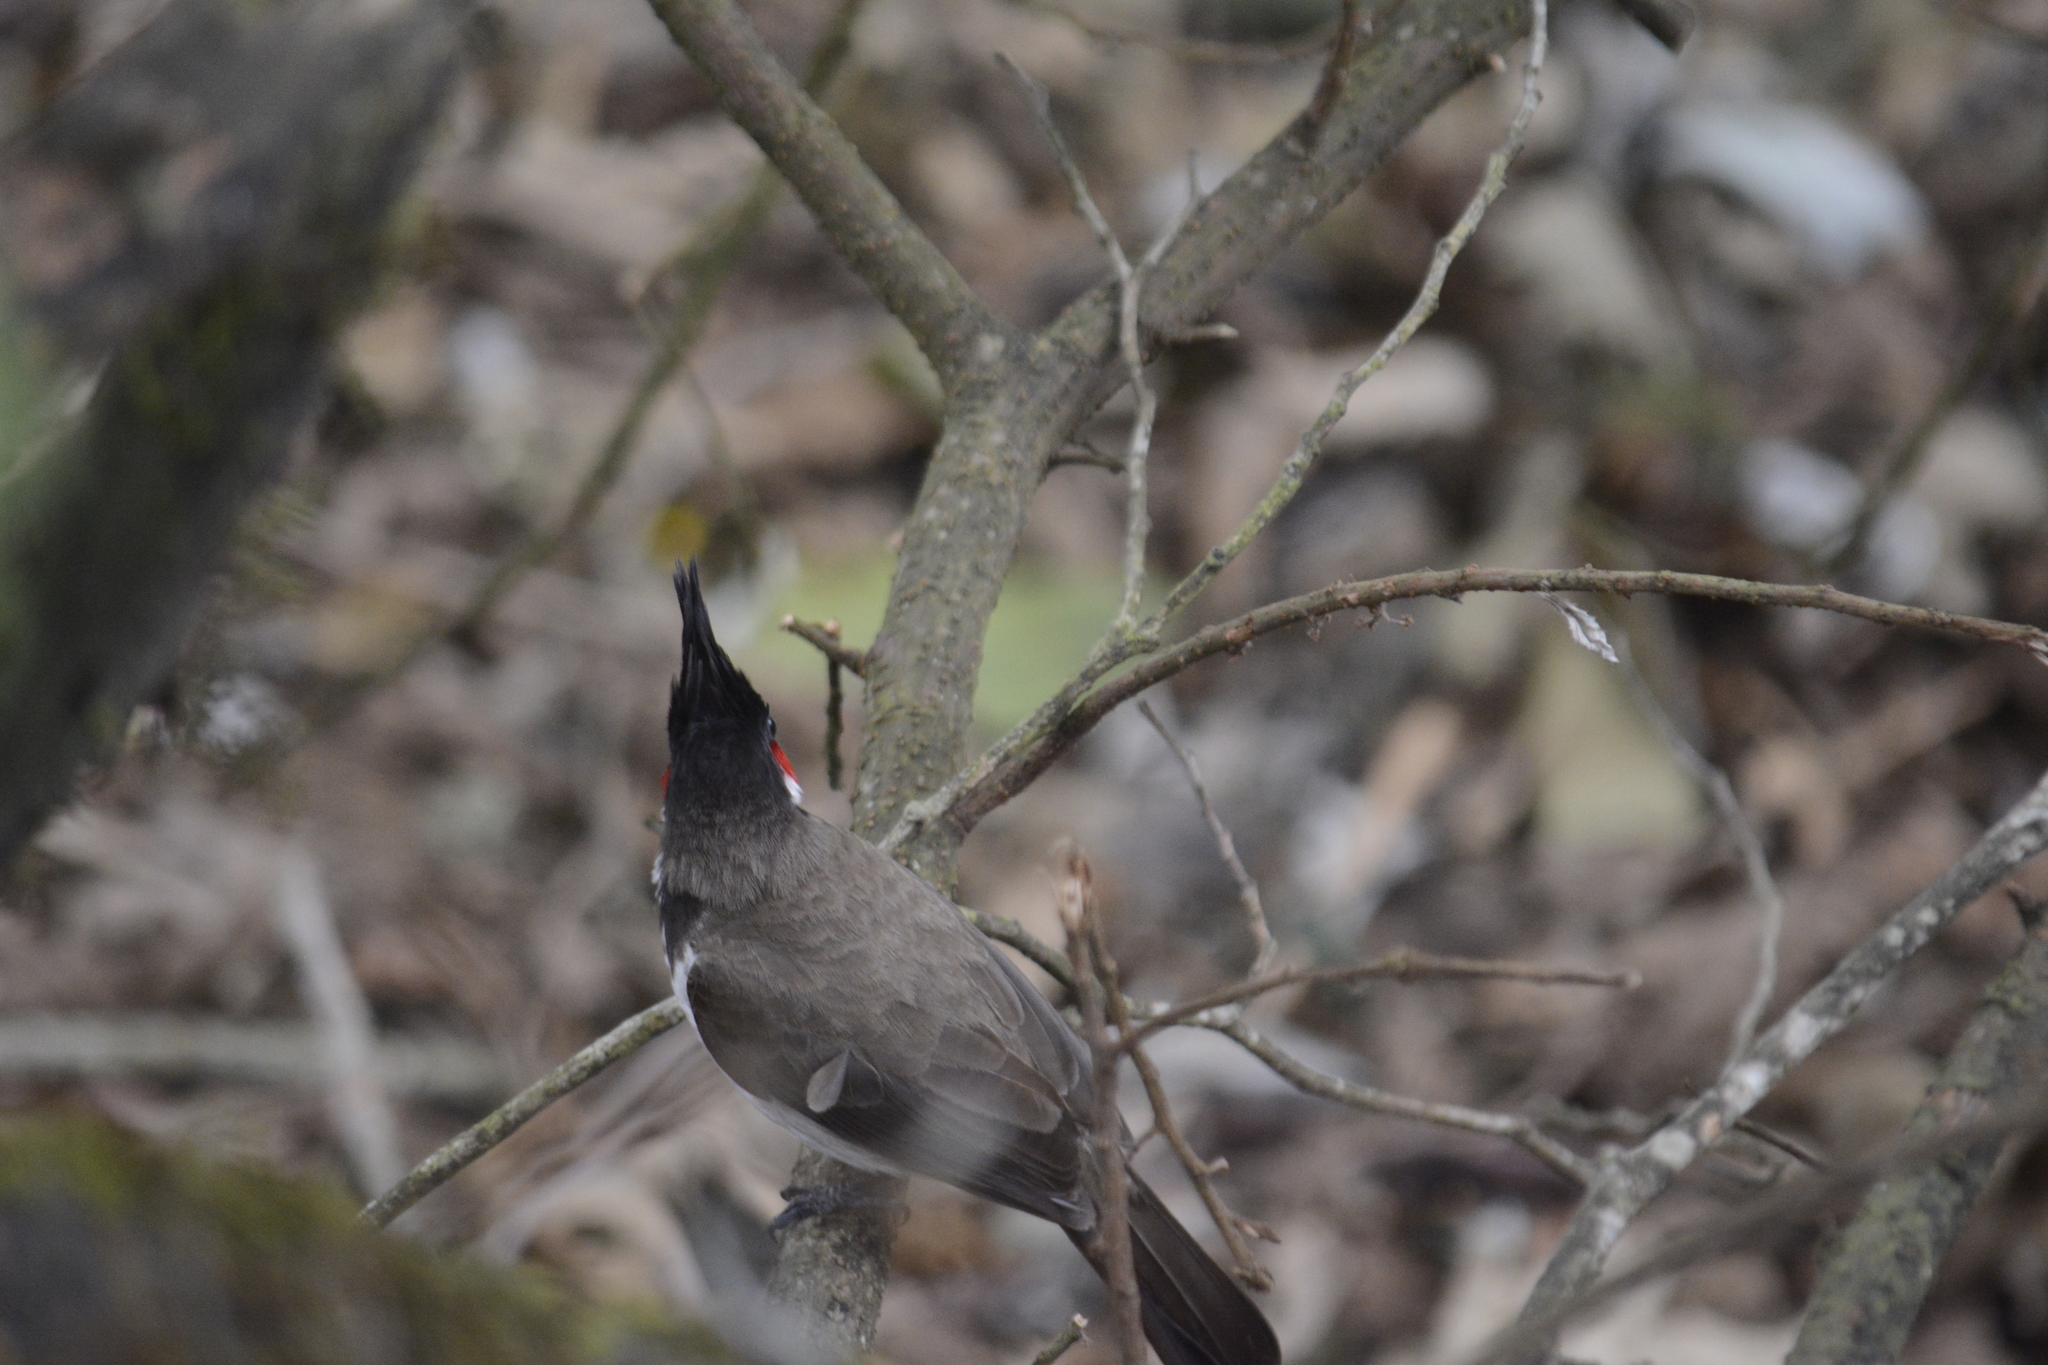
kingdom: Animalia
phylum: Chordata
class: Aves
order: Passeriformes
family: Pycnonotidae
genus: Pycnonotus
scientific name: Pycnonotus jocosus
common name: Red-whiskered bulbul
